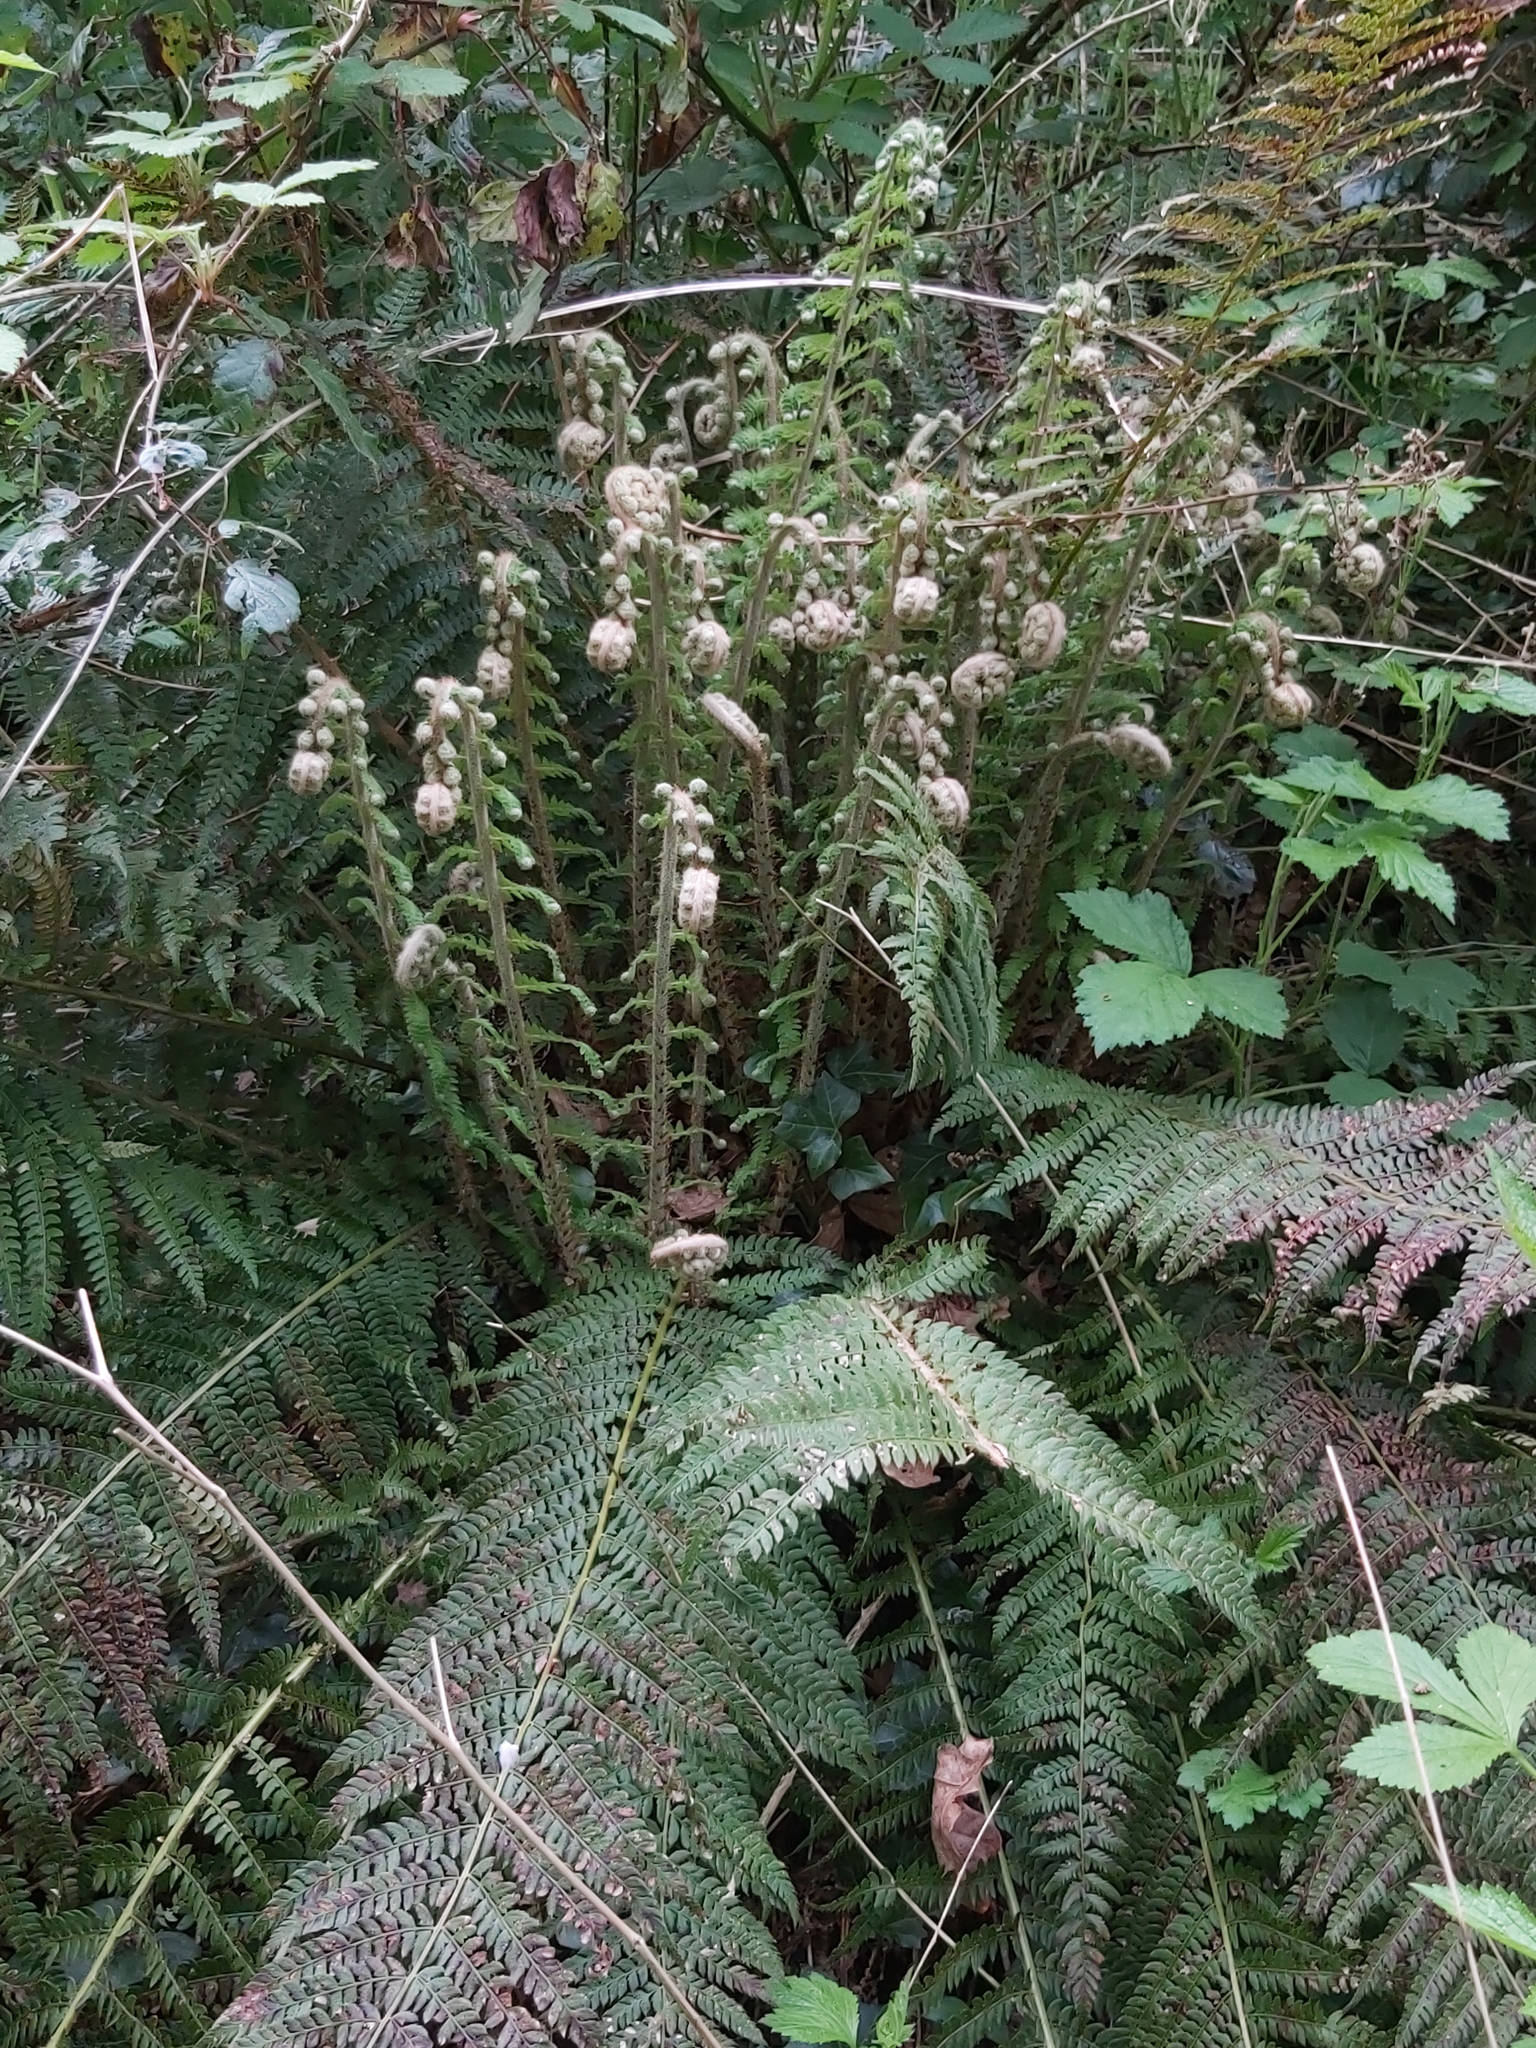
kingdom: Plantae
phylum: Tracheophyta
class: Polypodiopsida
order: Polypodiales
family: Dryopteridaceae
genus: Polystichum
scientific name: Polystichum setiferum
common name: Soft shield-fern
